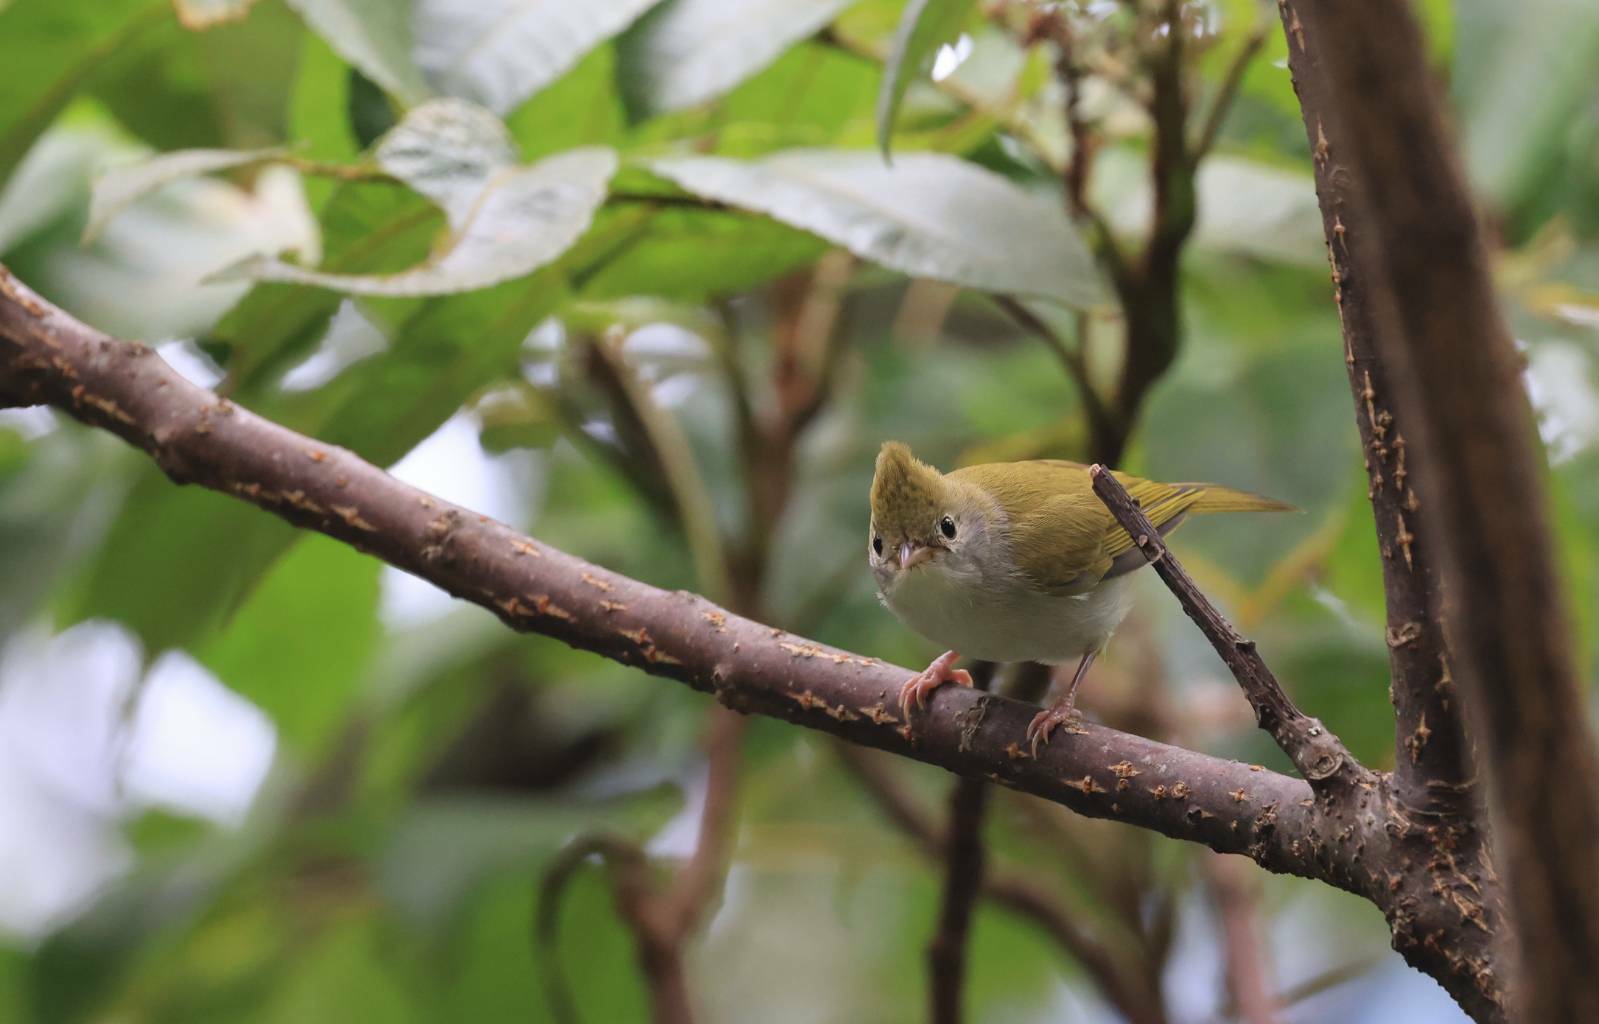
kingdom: Animalia
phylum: Chordata
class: Aves
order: Passeriformes
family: Vireonidae
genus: Erpornis
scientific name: Erpornis zantholeuca
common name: White-bellied erpornis
